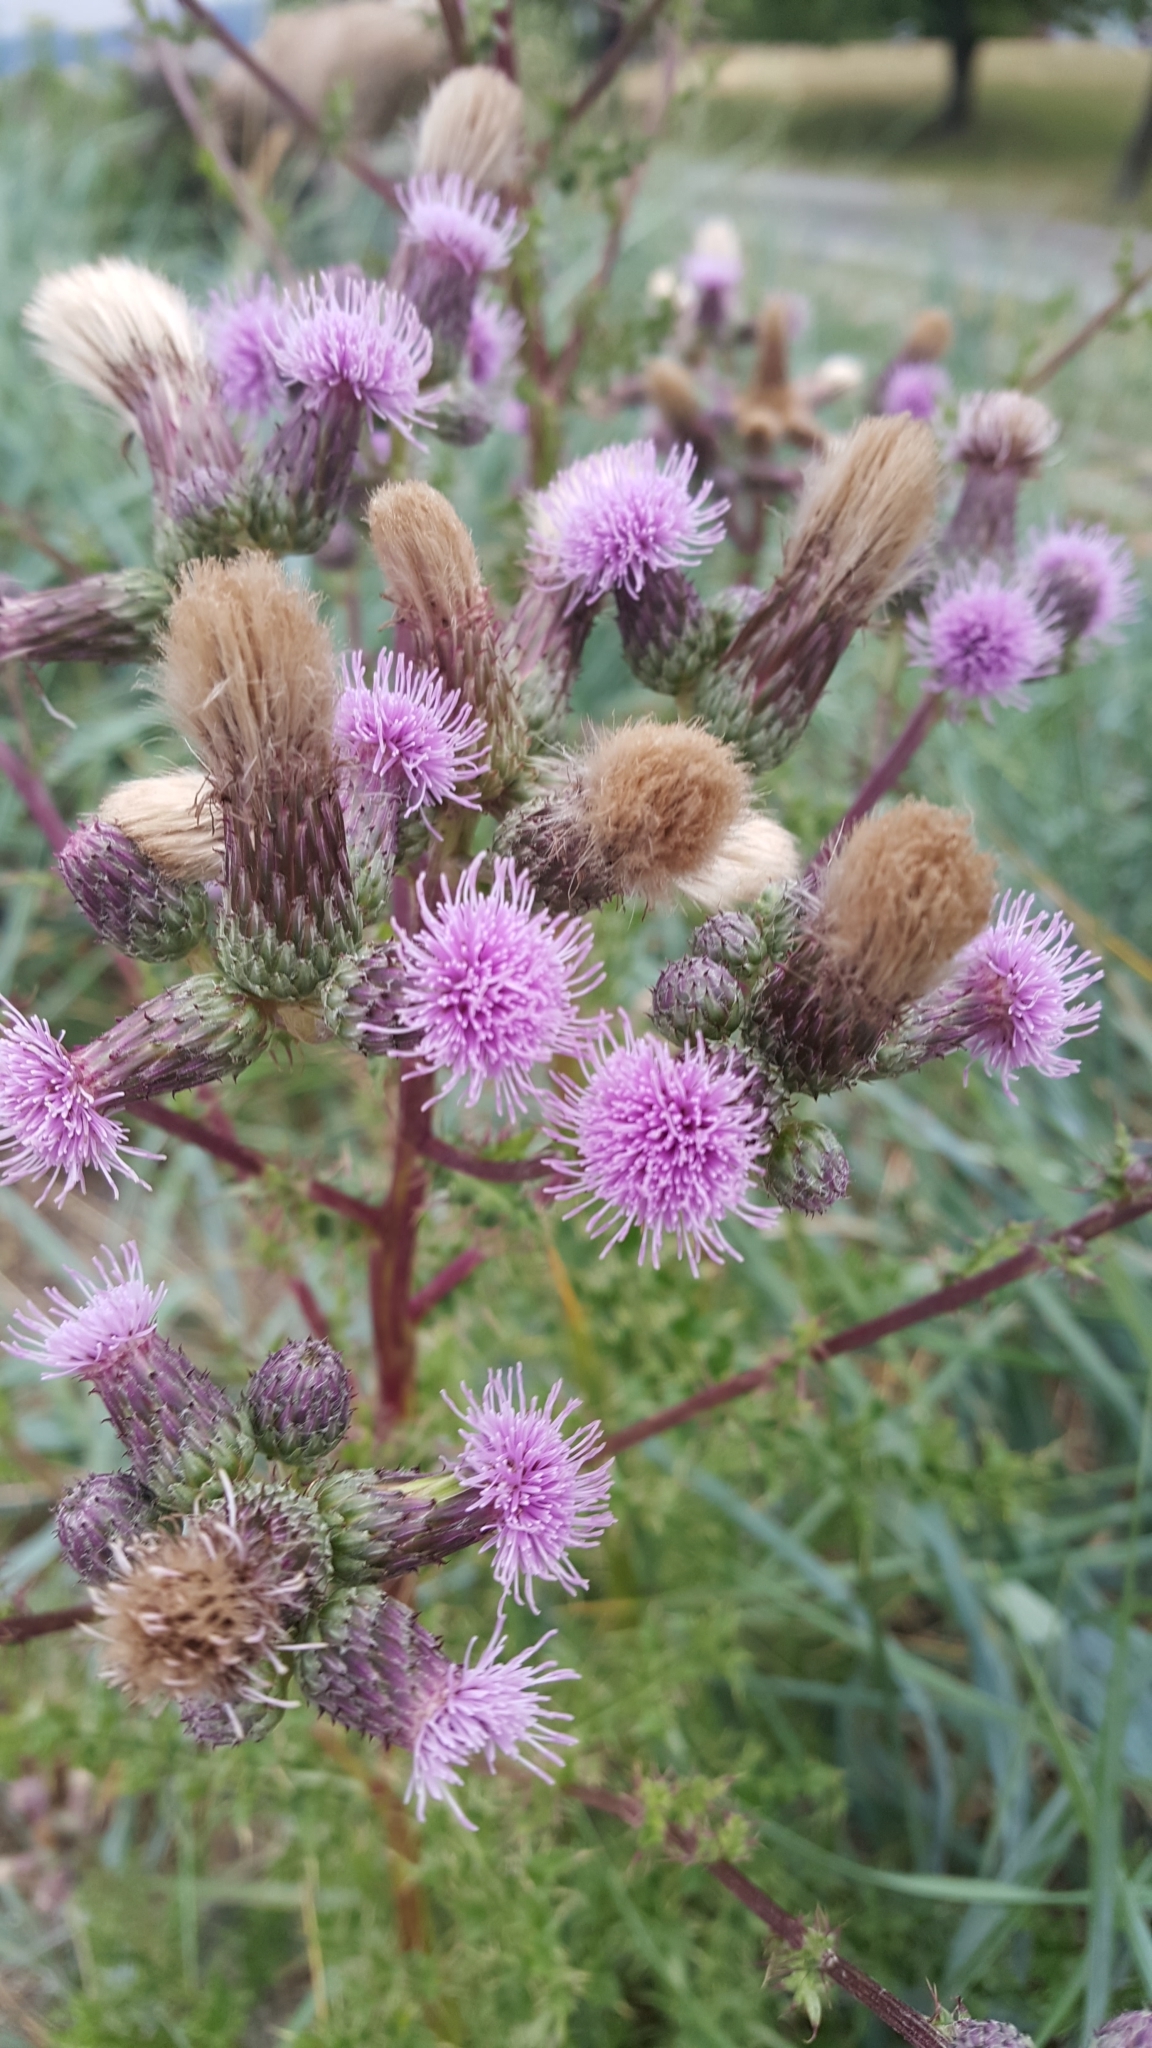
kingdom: Plantae
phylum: Tracheophyta
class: Magnoliopsida
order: Asterales
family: Asteraceae
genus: Cirsium
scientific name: Cirsium arvense
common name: Creeping thistle
